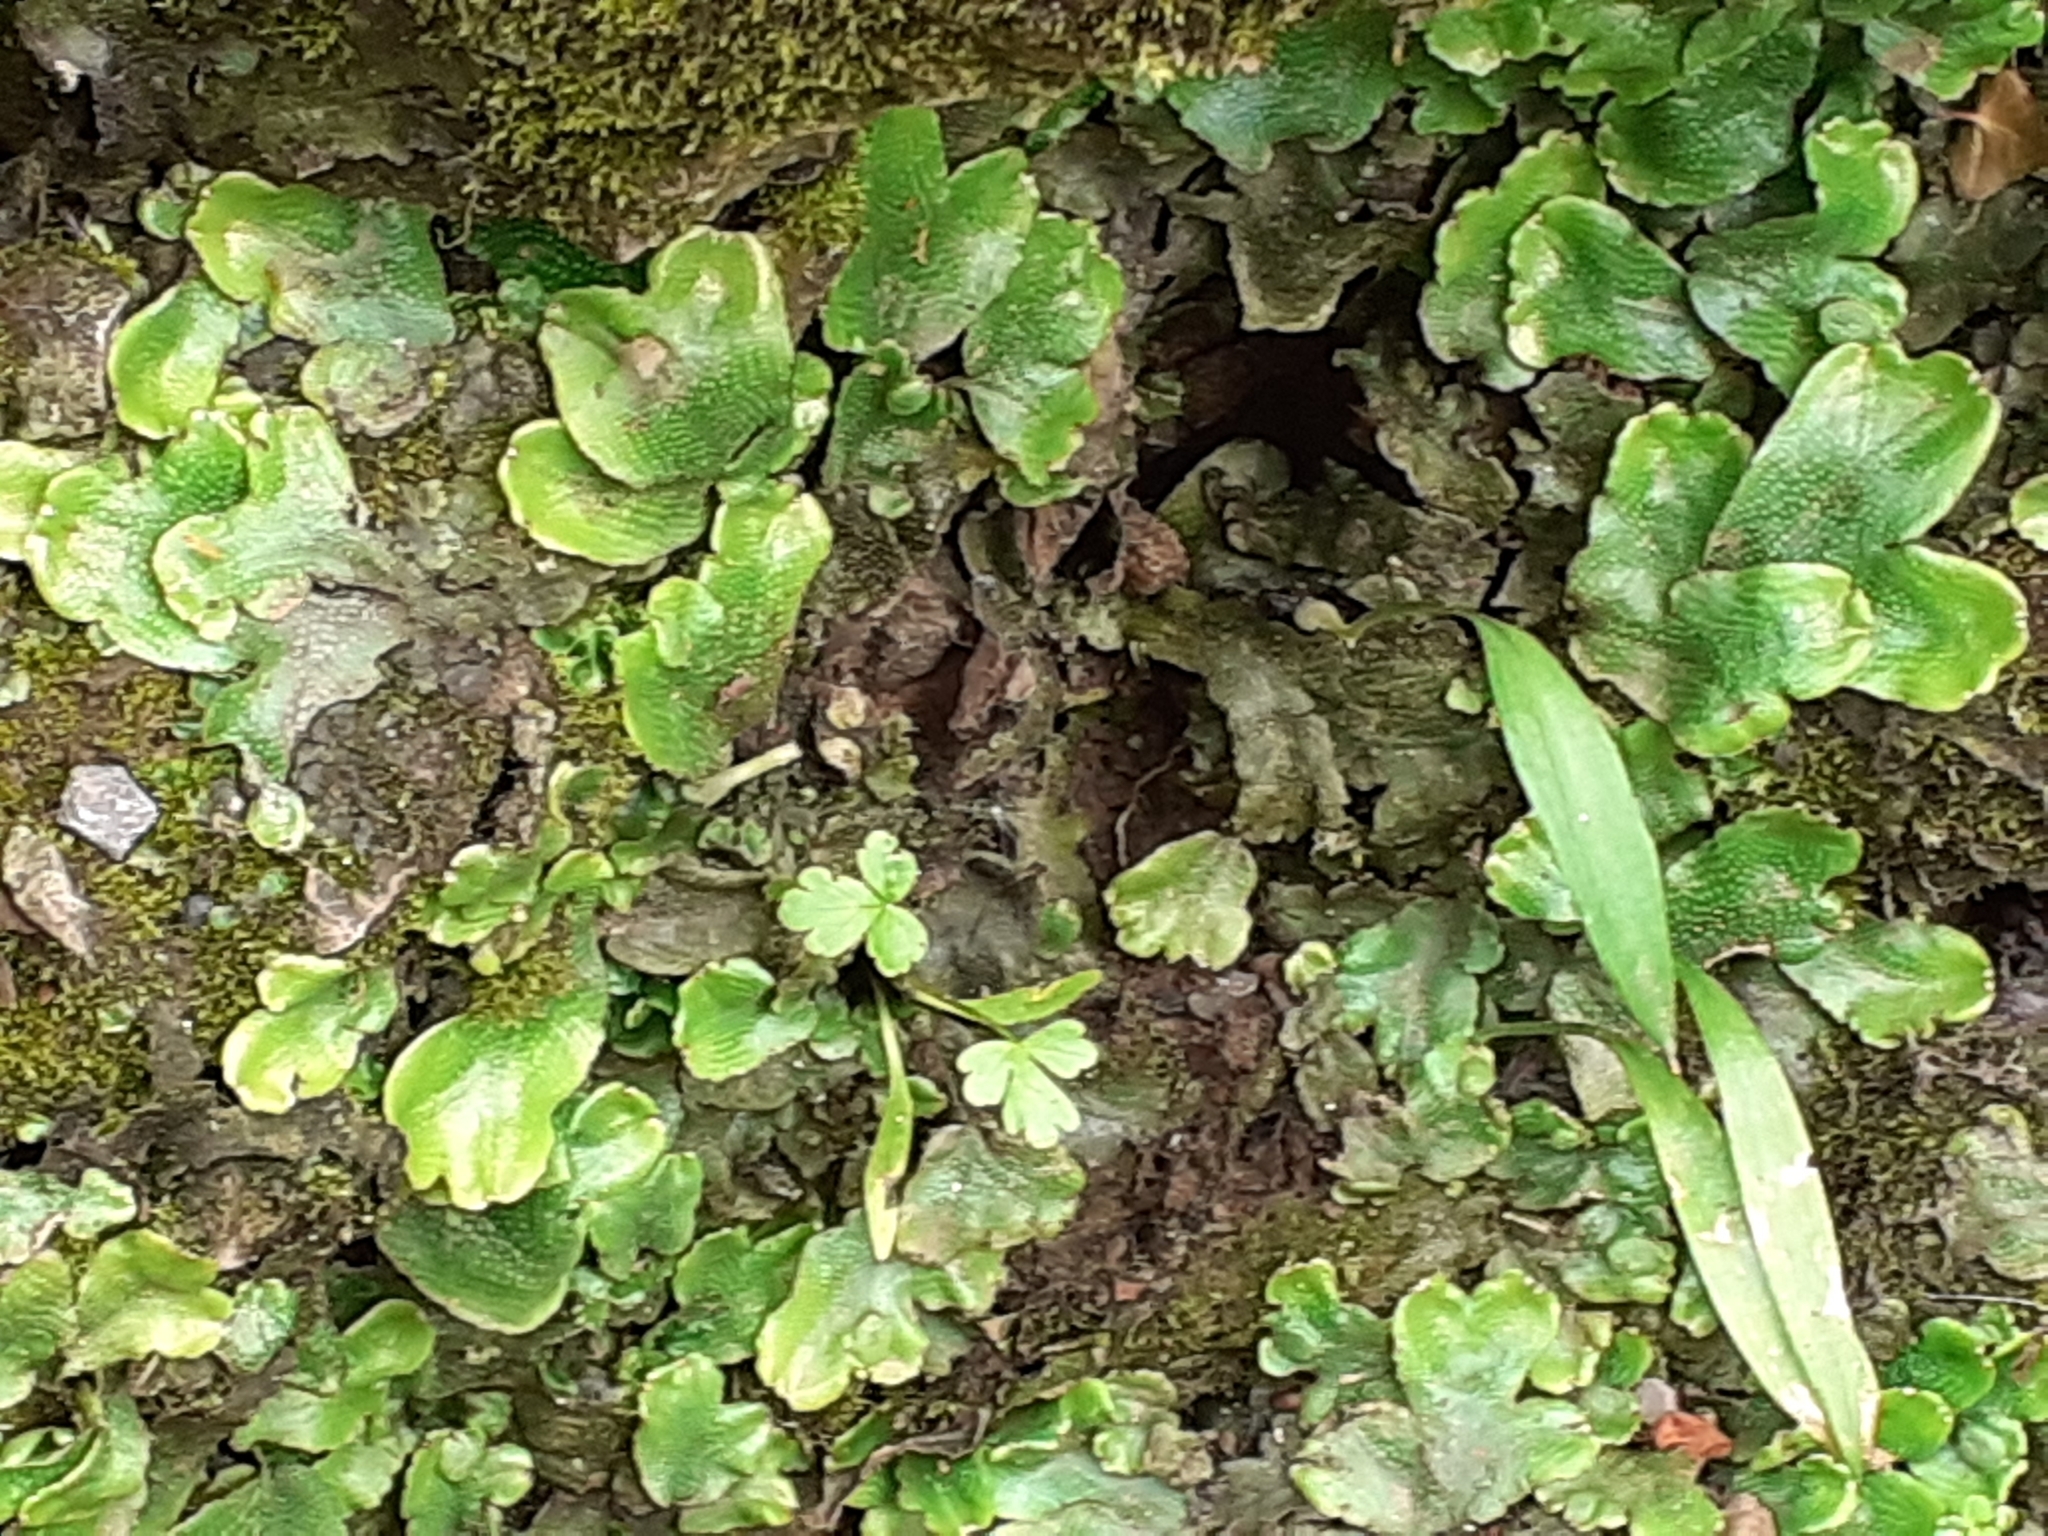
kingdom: Plantae
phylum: Marchantiophyta
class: Marchantiopsida
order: Marchantiales
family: Conocephalaceae
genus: Conocephalum
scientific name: Conocephalum conicum
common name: Great scented liverwort
